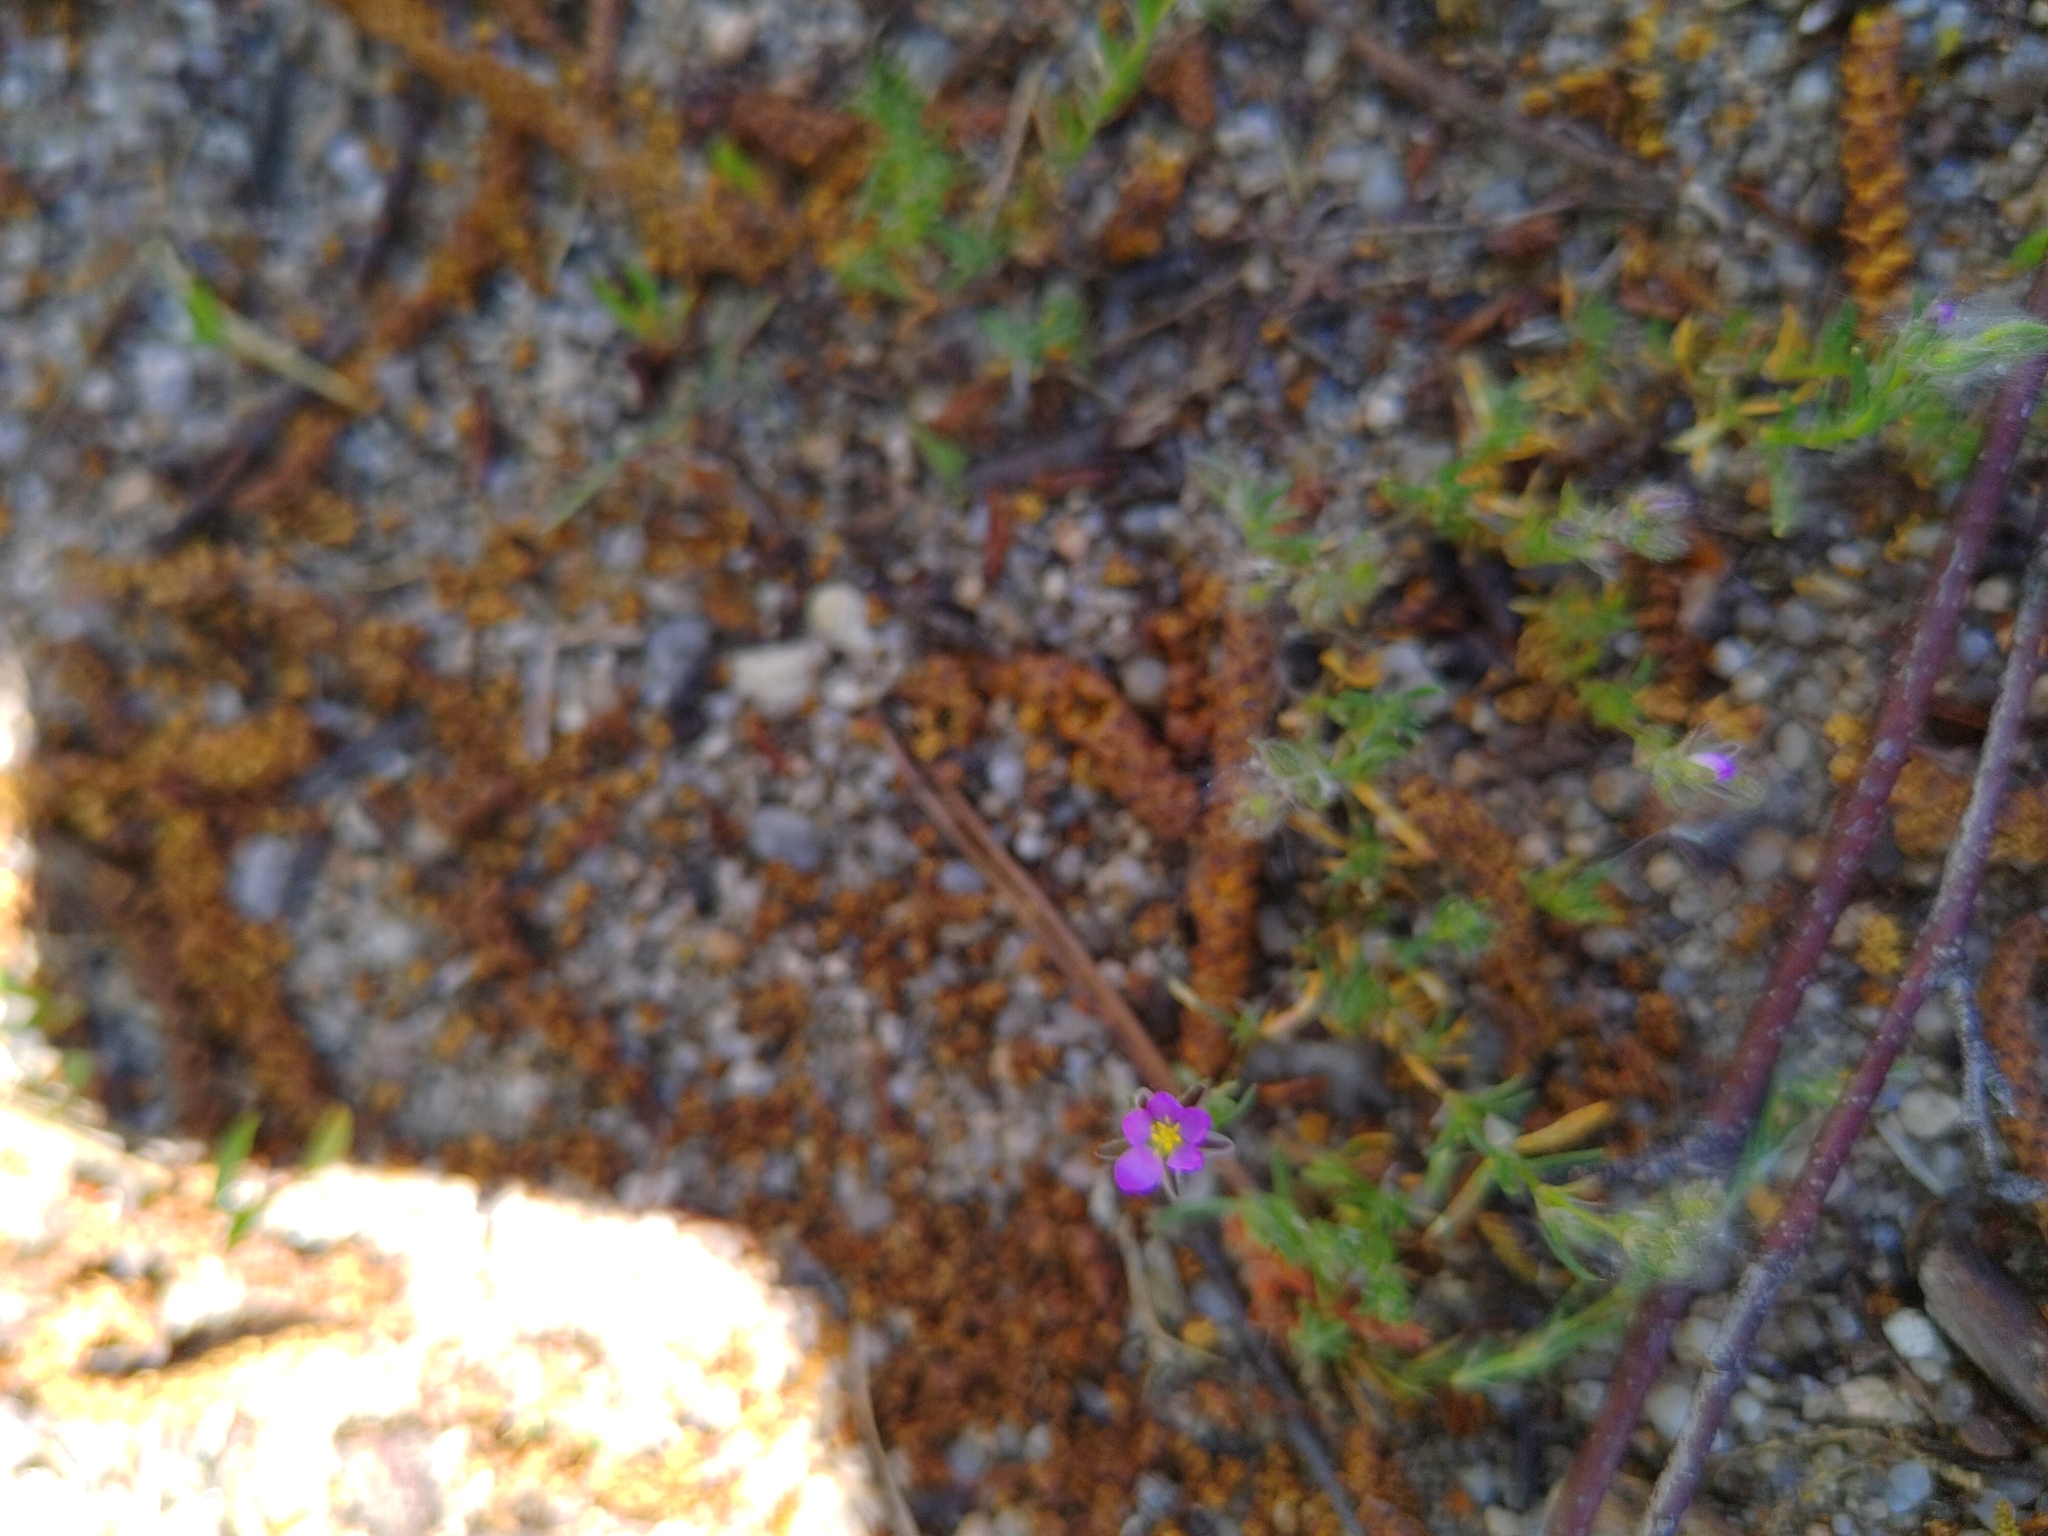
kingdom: Plantae
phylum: Tracheophyta
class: Magnoliopsida
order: Caryophyllales
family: Caryophyllaceae
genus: Spergularia
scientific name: Spergularia rubra
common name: Red sand-spurrey
